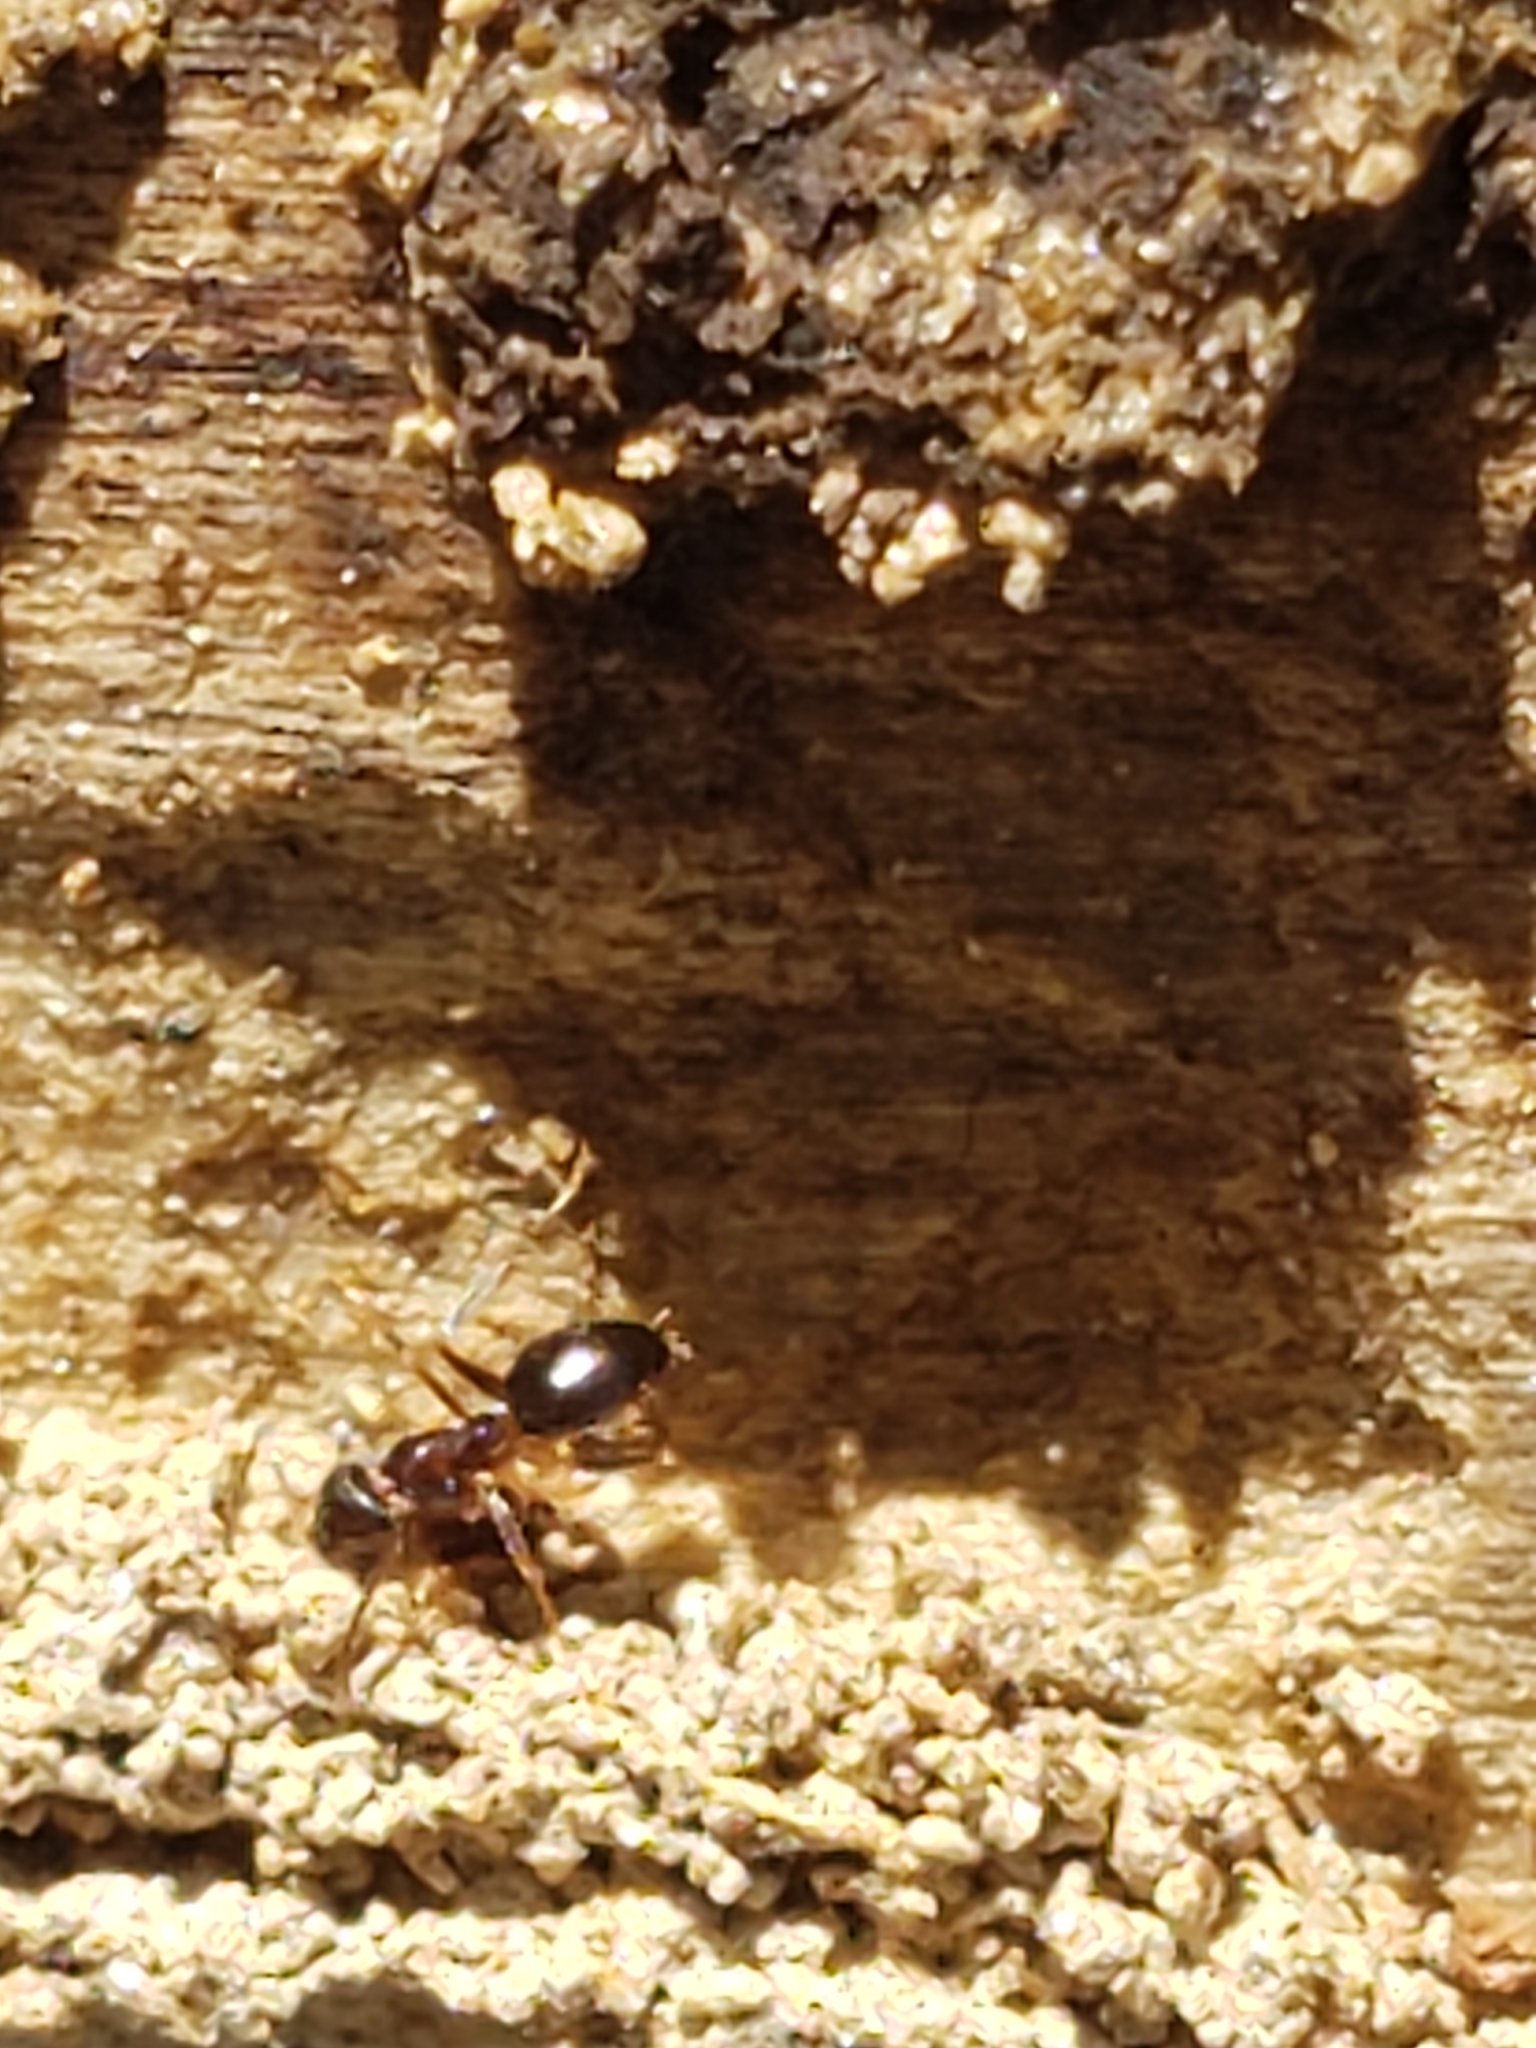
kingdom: Animalia
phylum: Arthropoda
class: Insecta
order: Hymenoptera
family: Formicidae
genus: Prenolepis
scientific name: Prenolepis imparis
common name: Small honey ant
